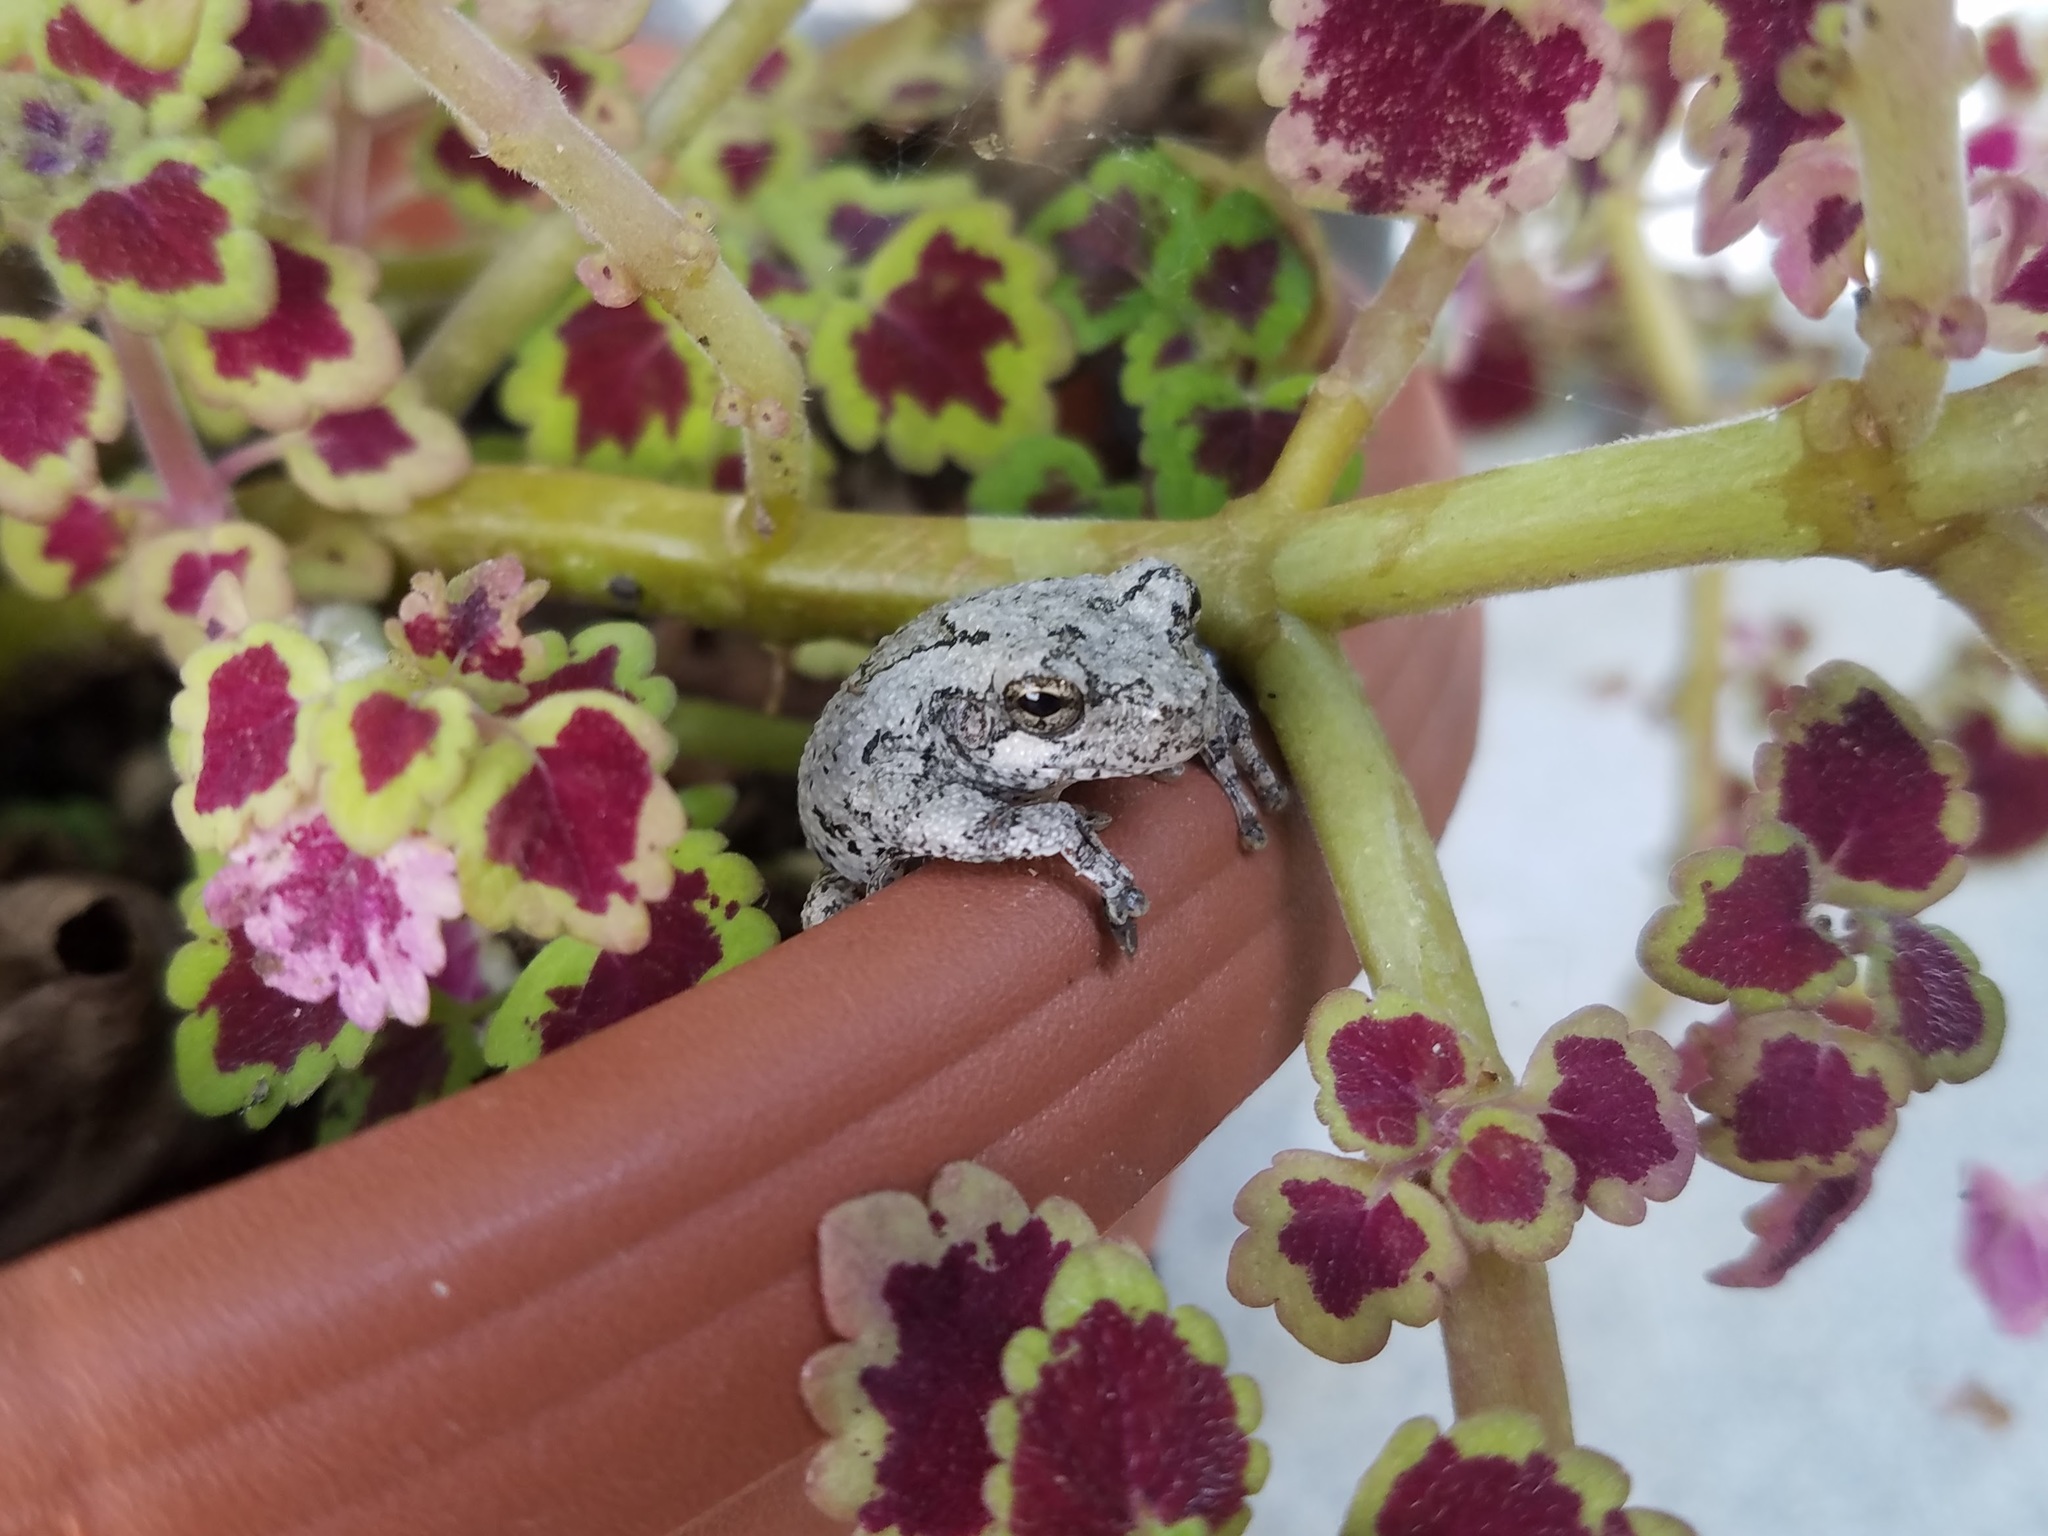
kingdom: Animalia
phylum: Chordata
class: Amphibia
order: Anura
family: Hylidae
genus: Dryophytes
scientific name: Dryophytes chrysoscelis
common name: Cope's gray treefrog
